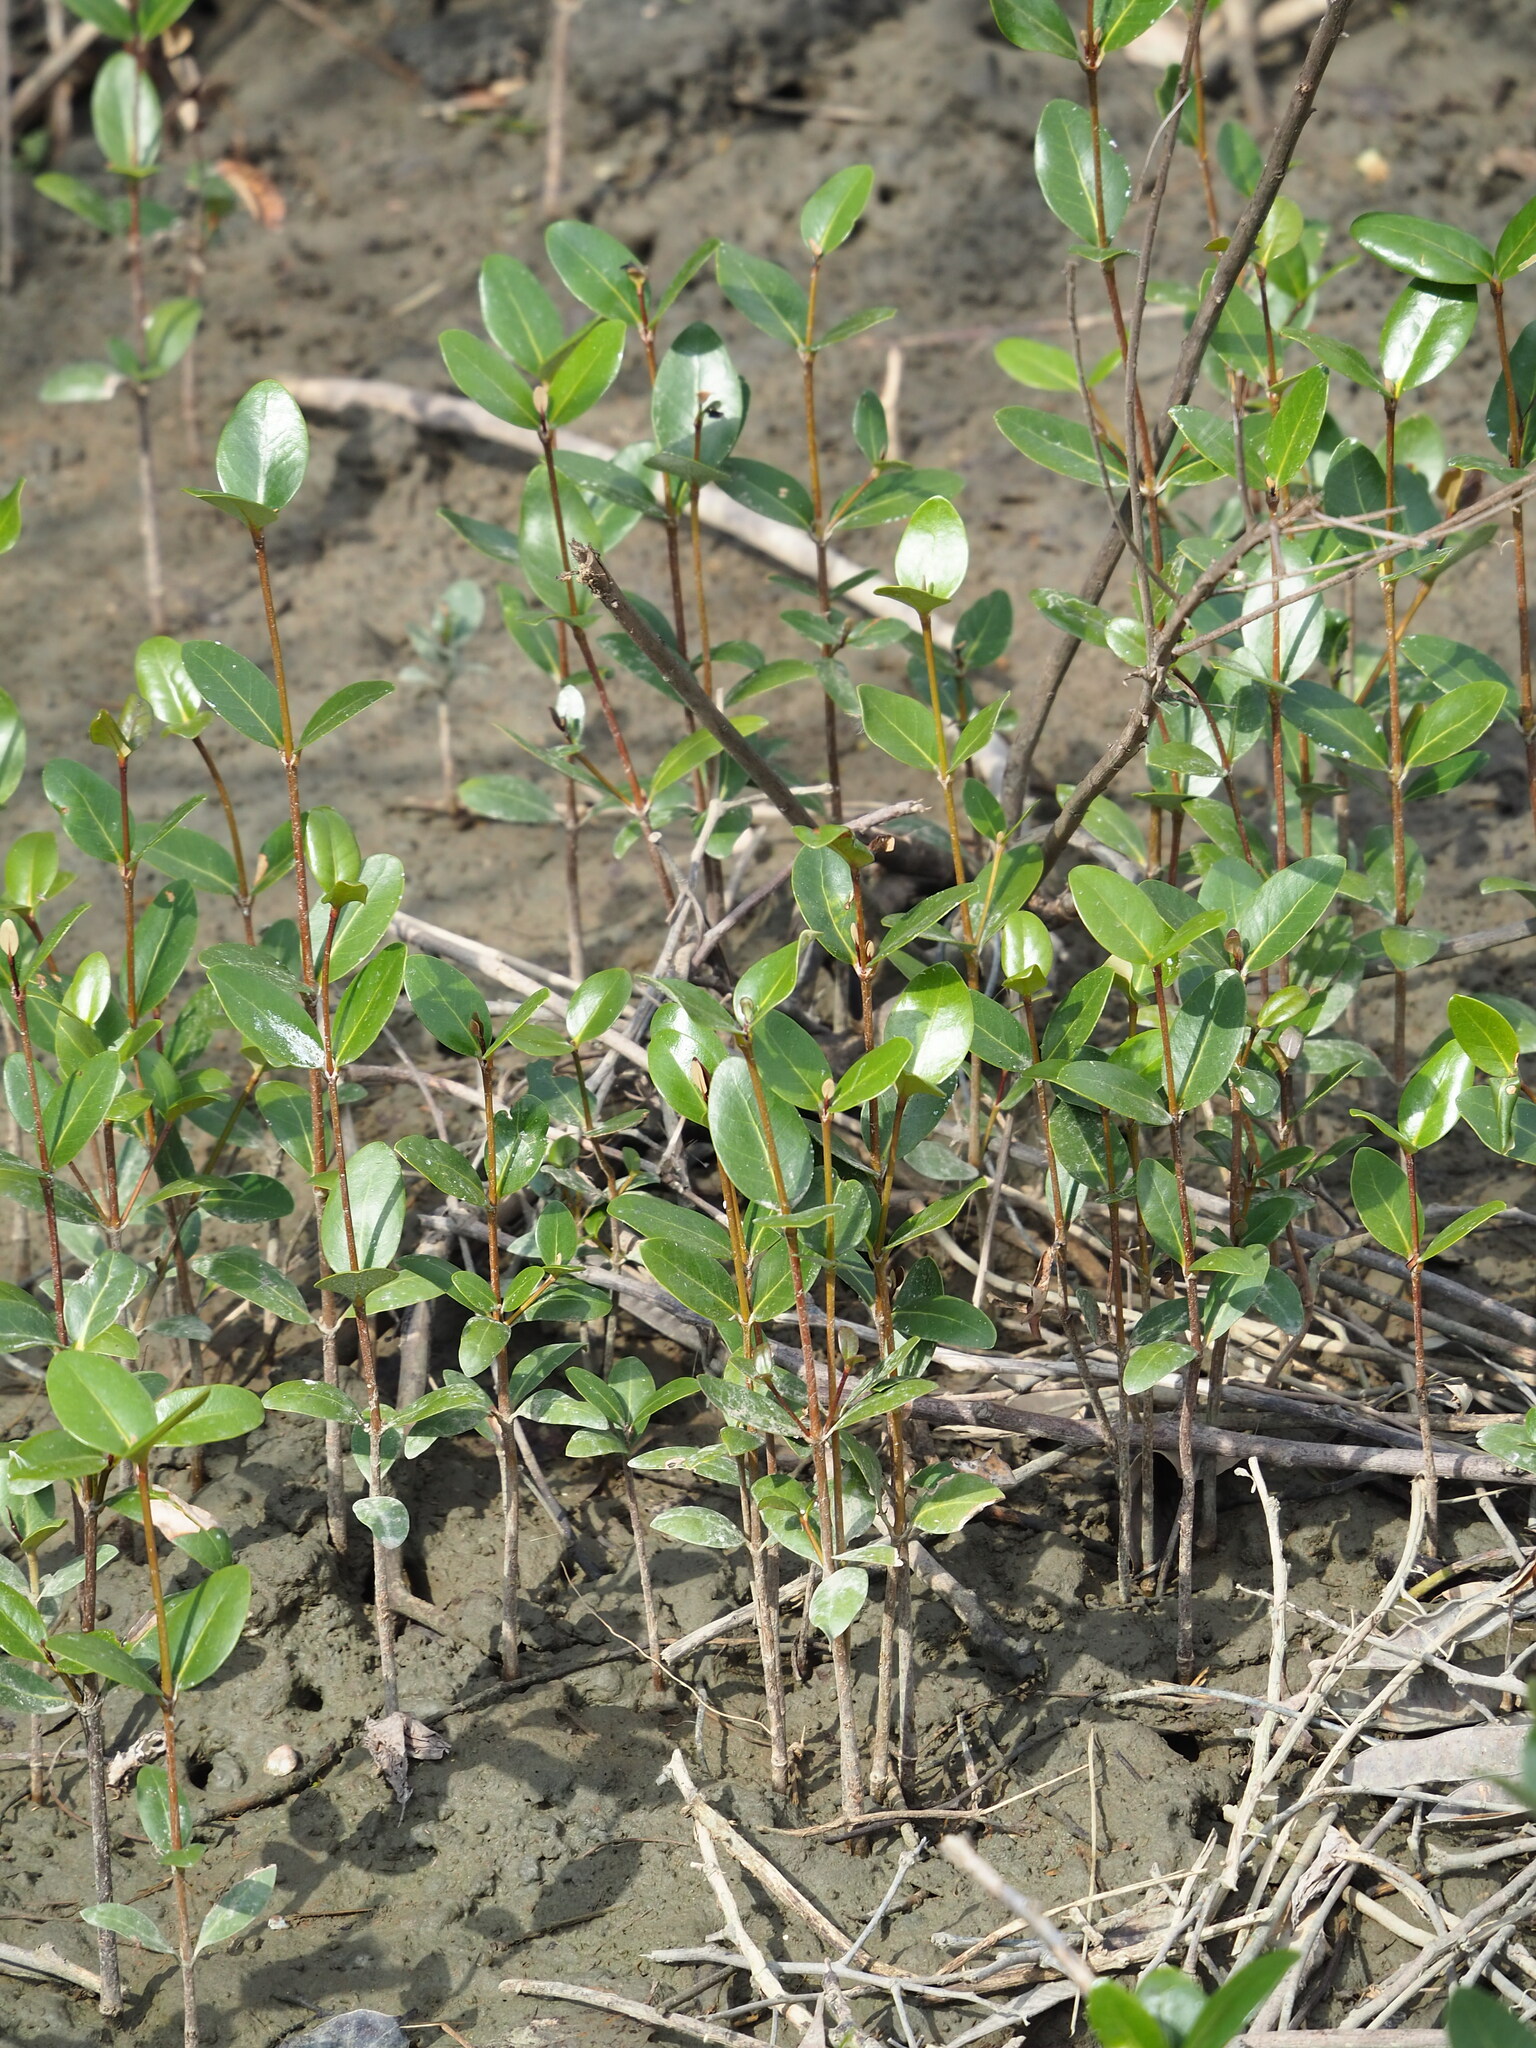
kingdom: Plantae
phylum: Tracheophyta
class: Magnoliopsida
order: Lamiales
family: Acanthaceae
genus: Avicennia
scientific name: Avicennia marina
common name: Gray mangrove
